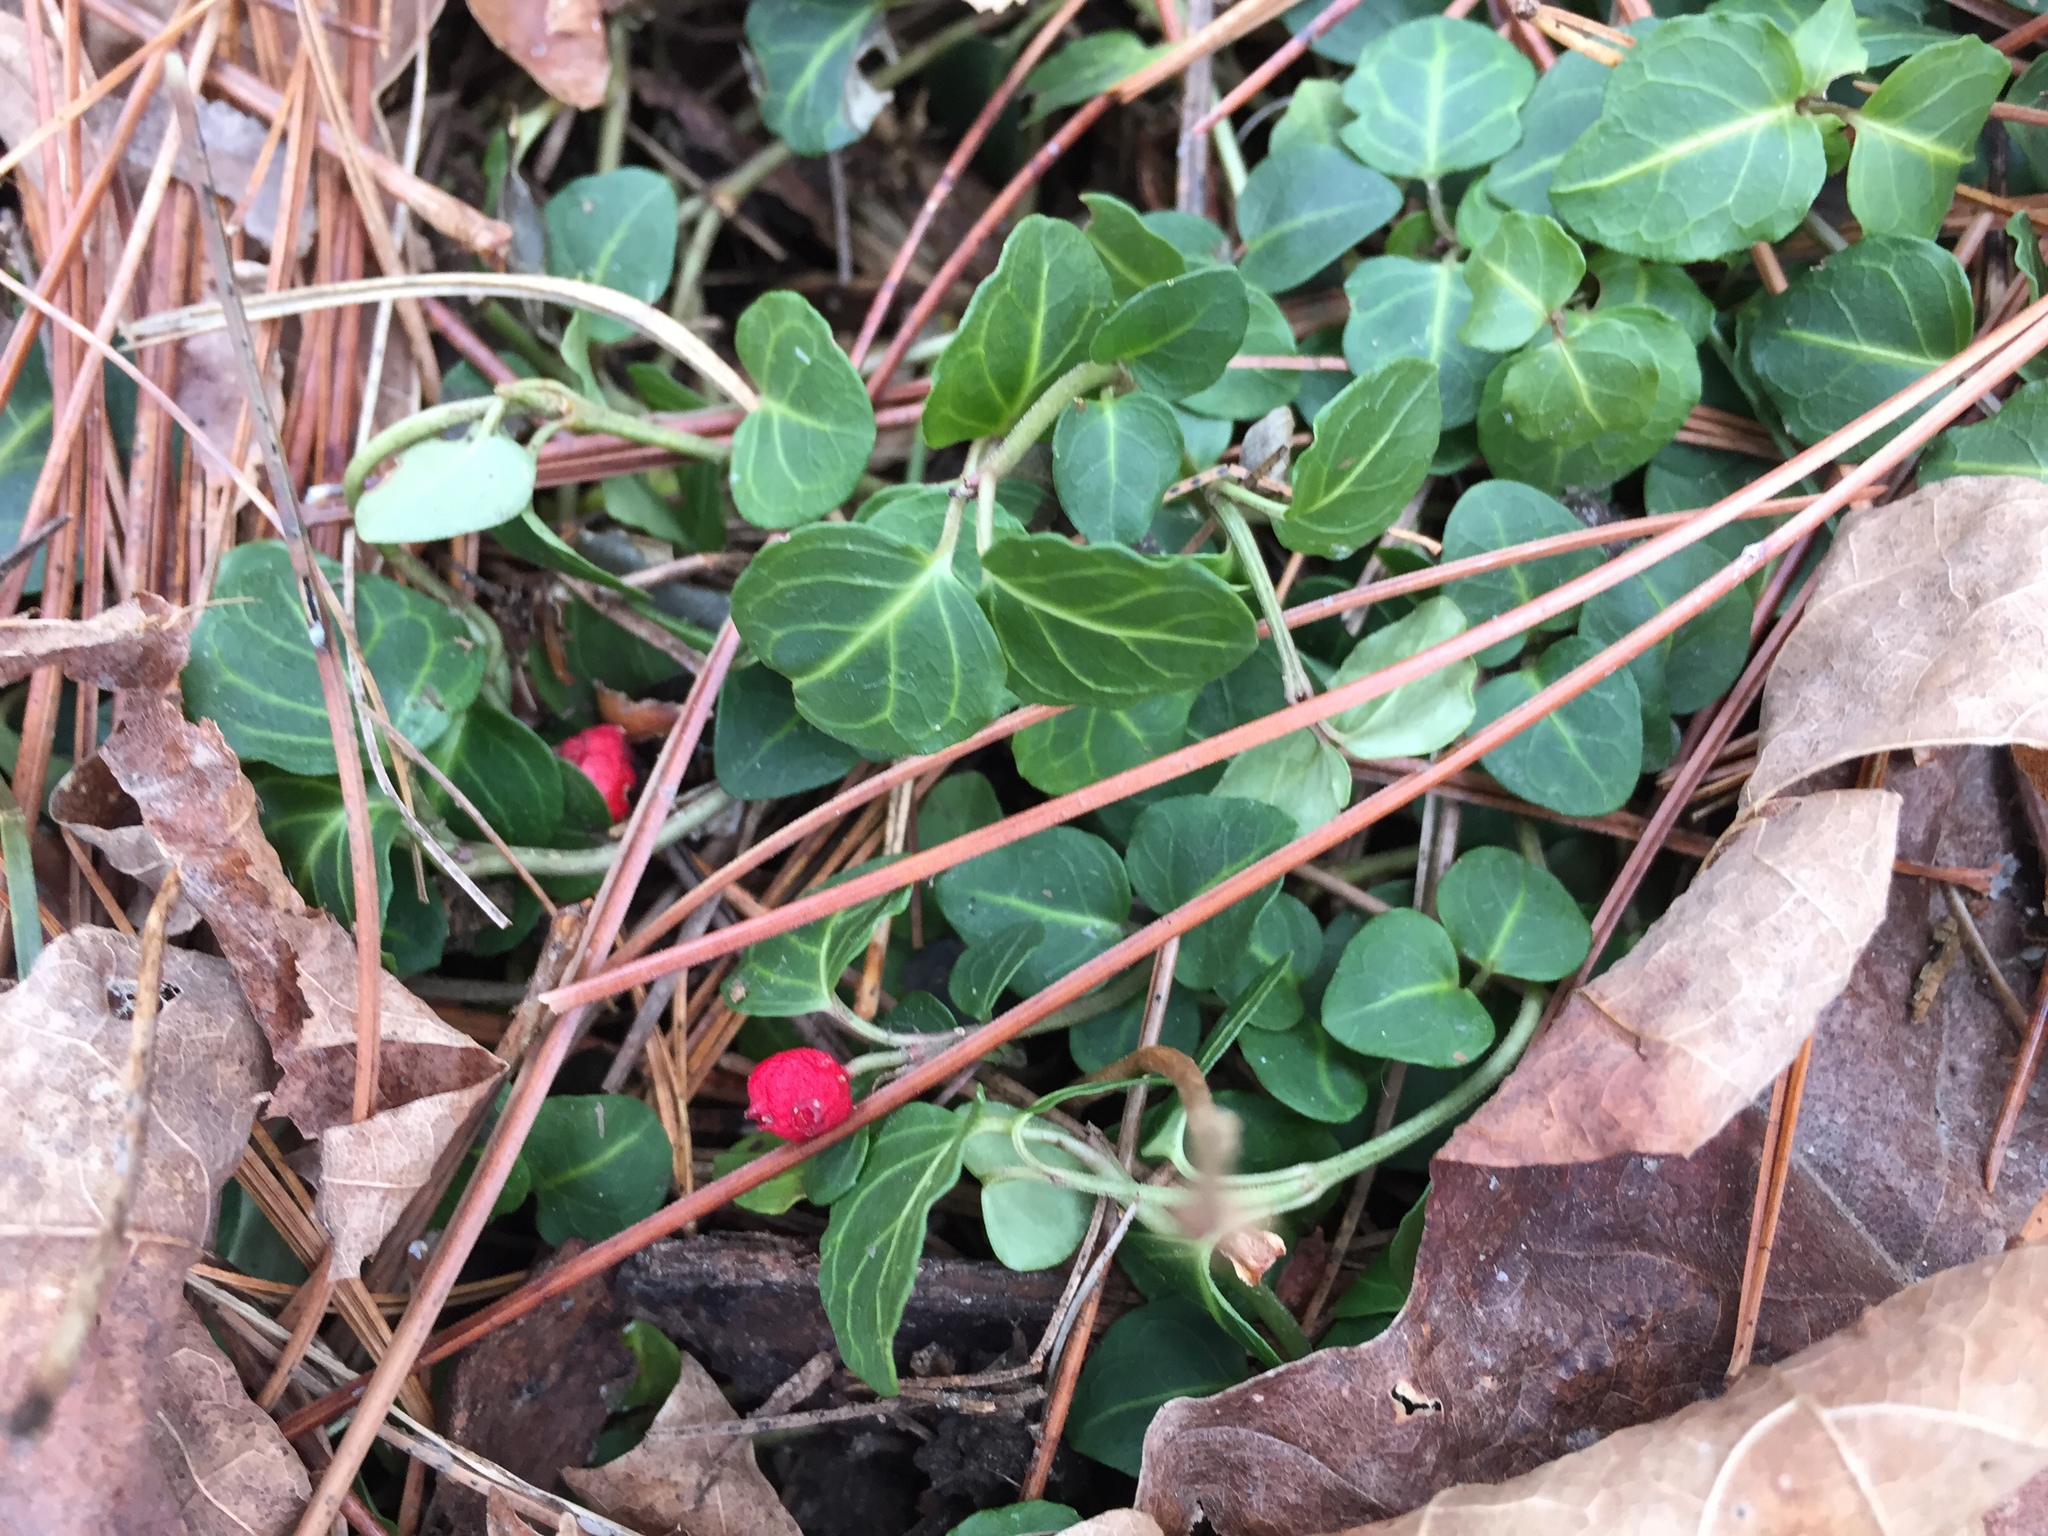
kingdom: Plantae
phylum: Tracheophyta
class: Magnoliopsida
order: Gentianales
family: Rubiaceae
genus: Mitchella
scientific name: Mitchella repens
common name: Partridge-berry
